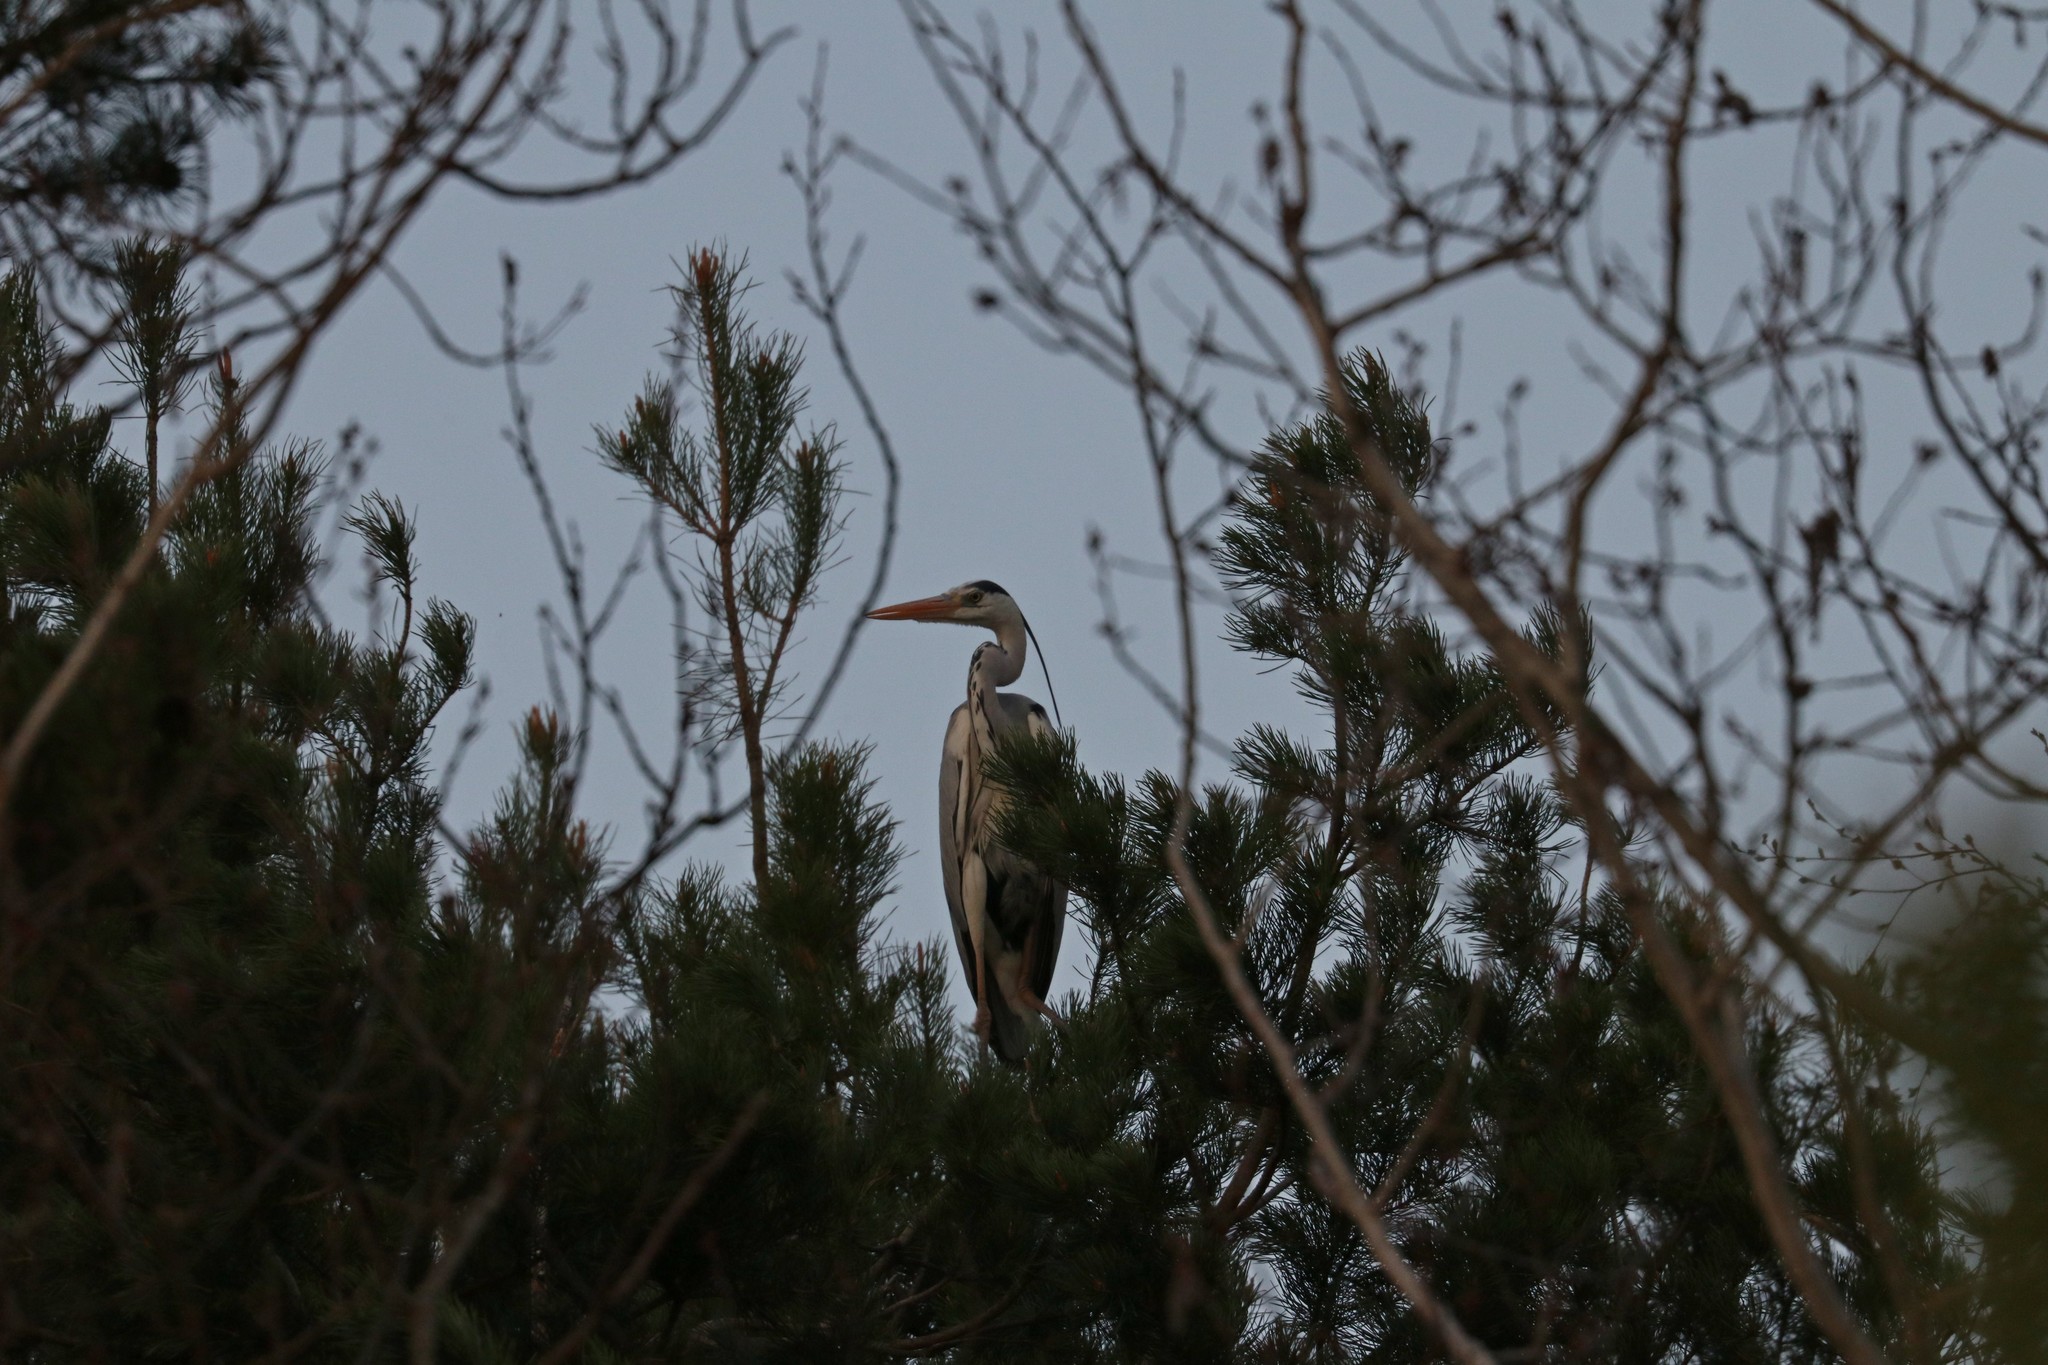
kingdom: Animalia
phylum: Chordata
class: Aves
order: Pelecaniformes
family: Ardeidae
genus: Ardea
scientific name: Ardea cinerea
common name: Grey heron
